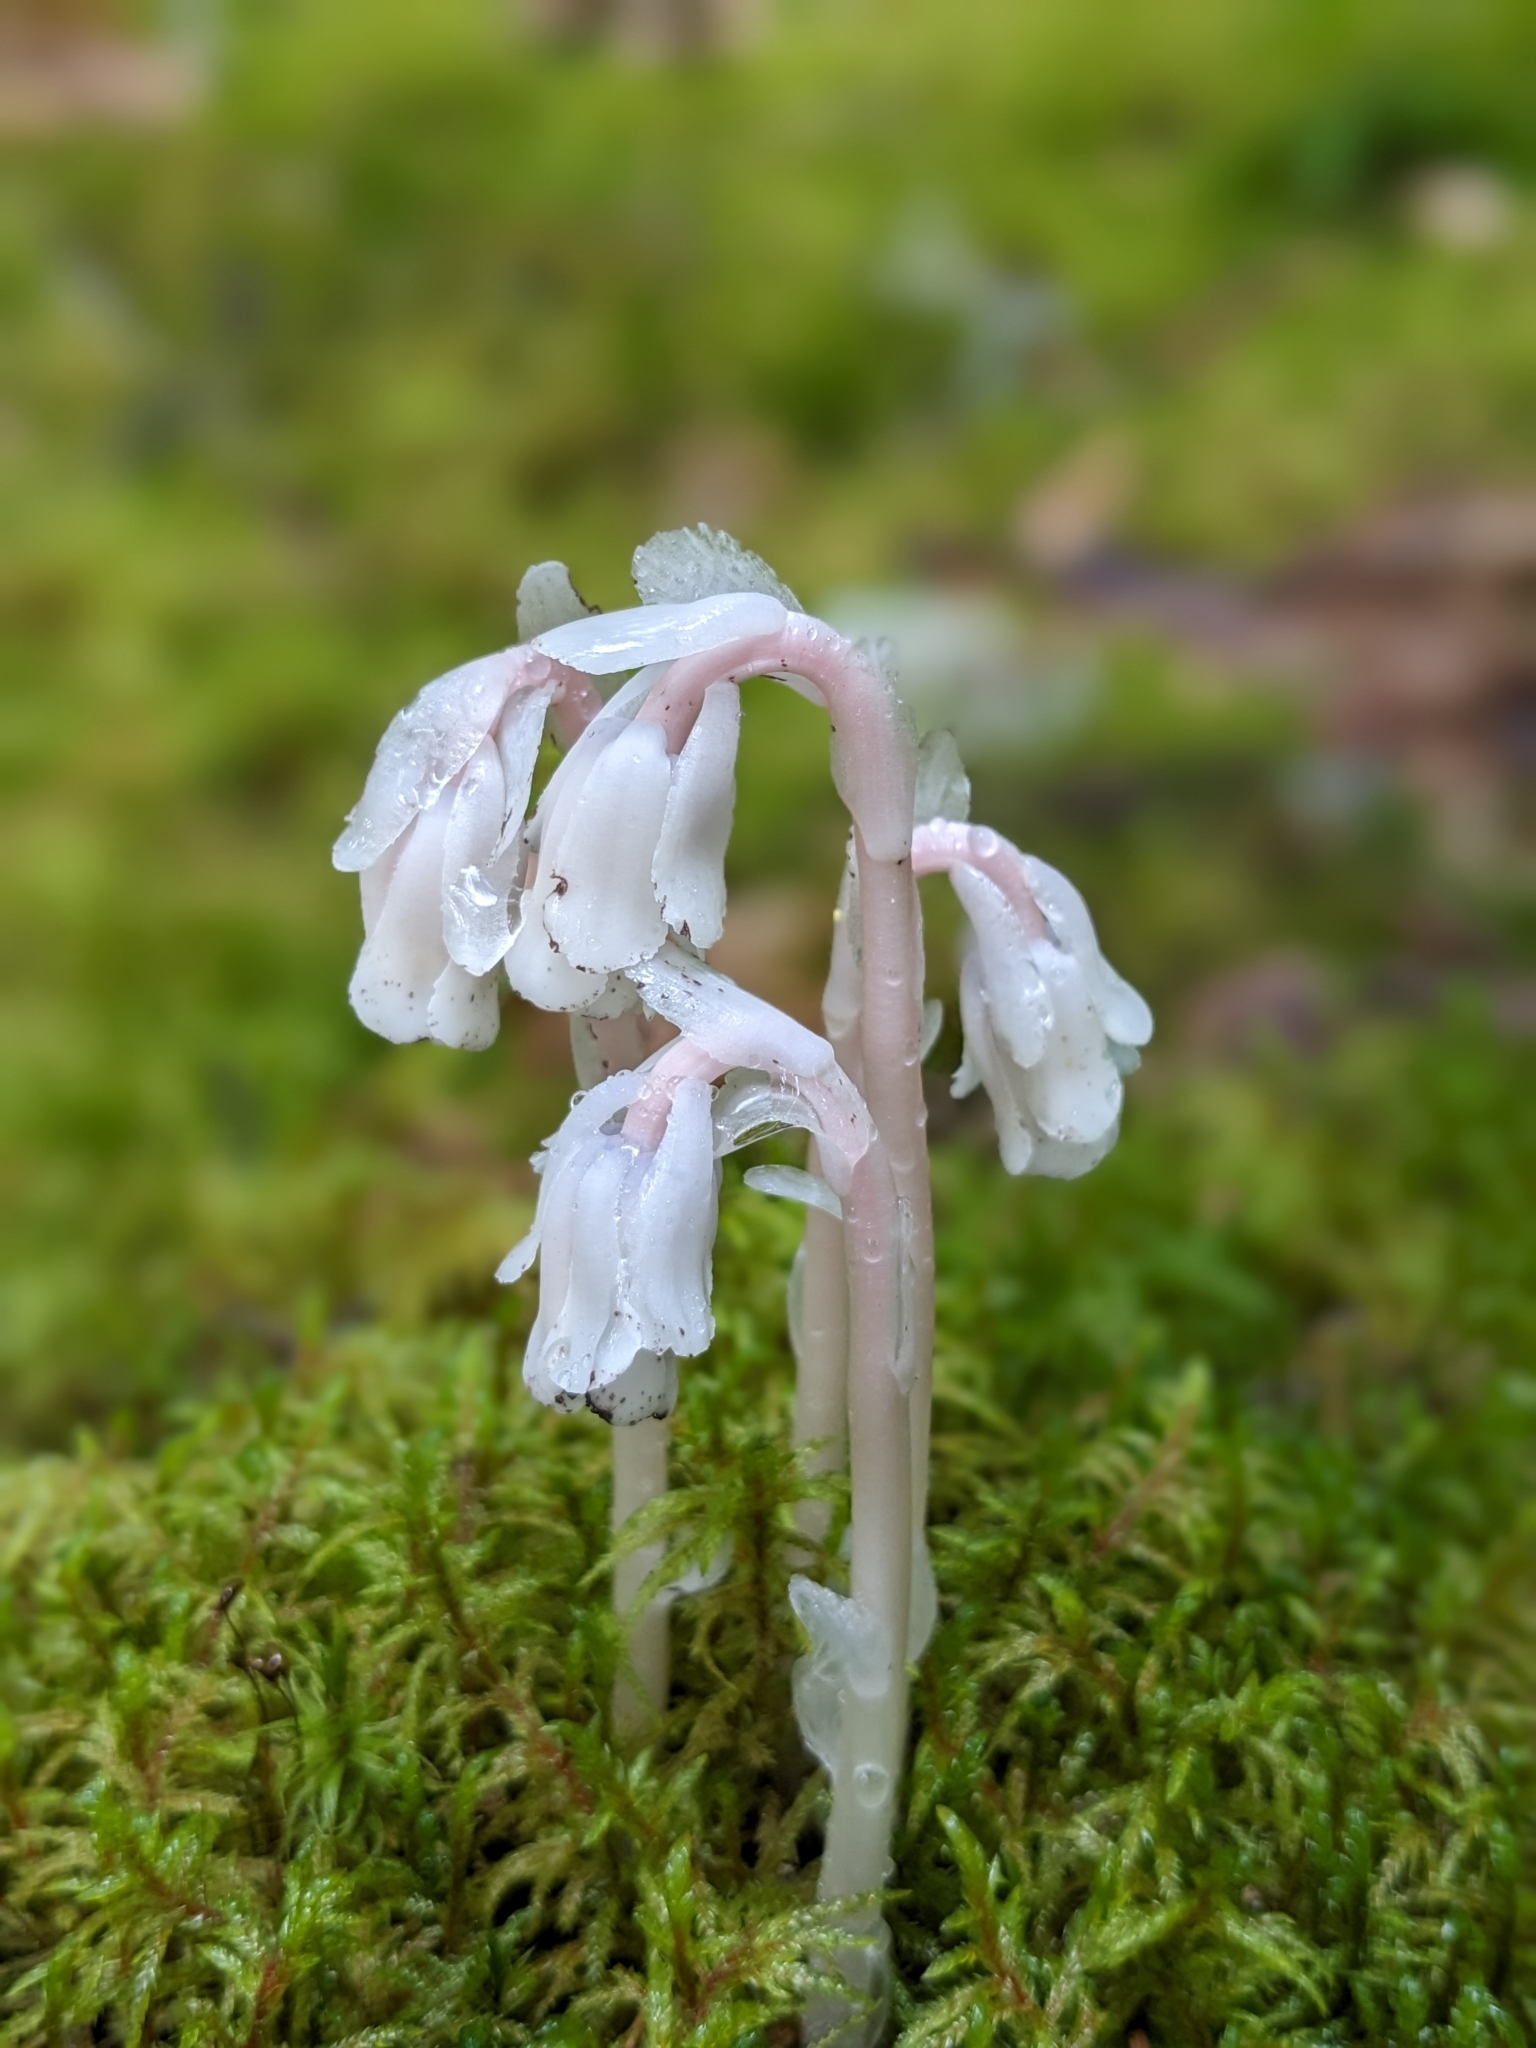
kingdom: Plantae
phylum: Tracheophyta
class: Magnoliopsida
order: Ericales
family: Ericaceae
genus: Monotropa
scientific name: Monotropa uniflora
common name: Convulsion root
